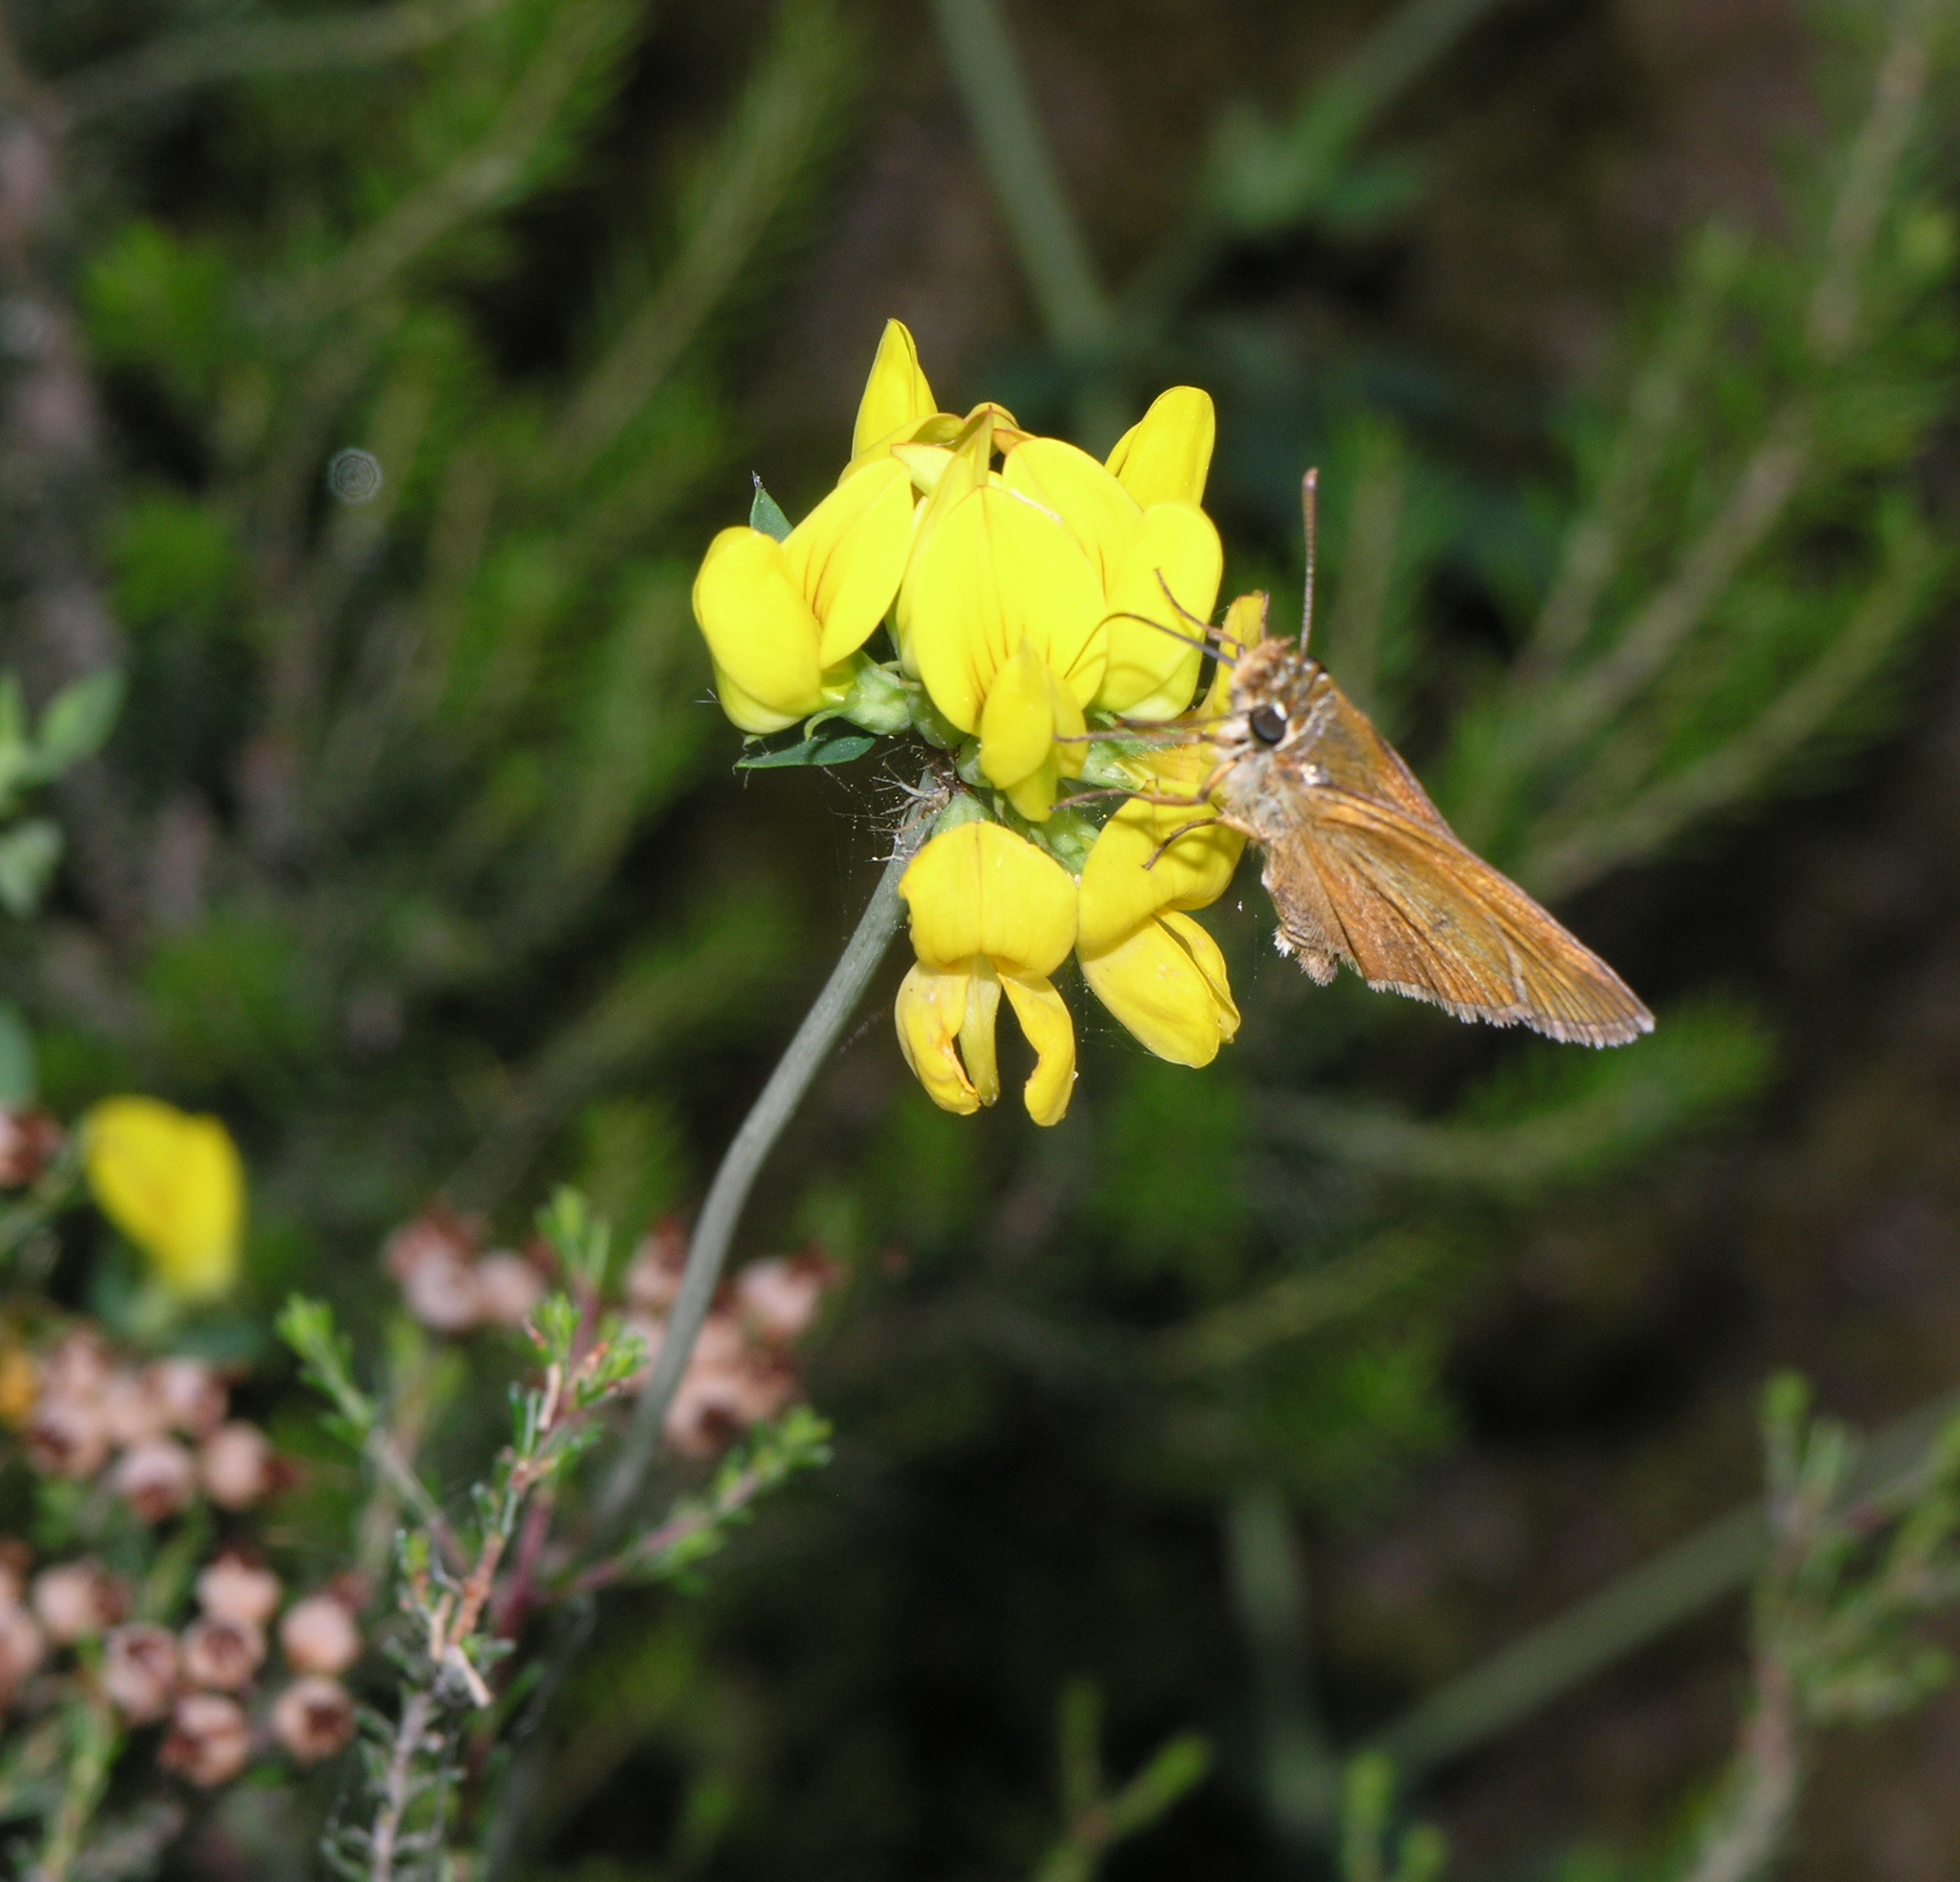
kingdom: Animalia
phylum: Arthropoda
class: Insecta
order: Lepidoptera
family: Hesperiidae
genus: Thymelicus
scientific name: Thymelicus acteon
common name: Lulworth skipper
